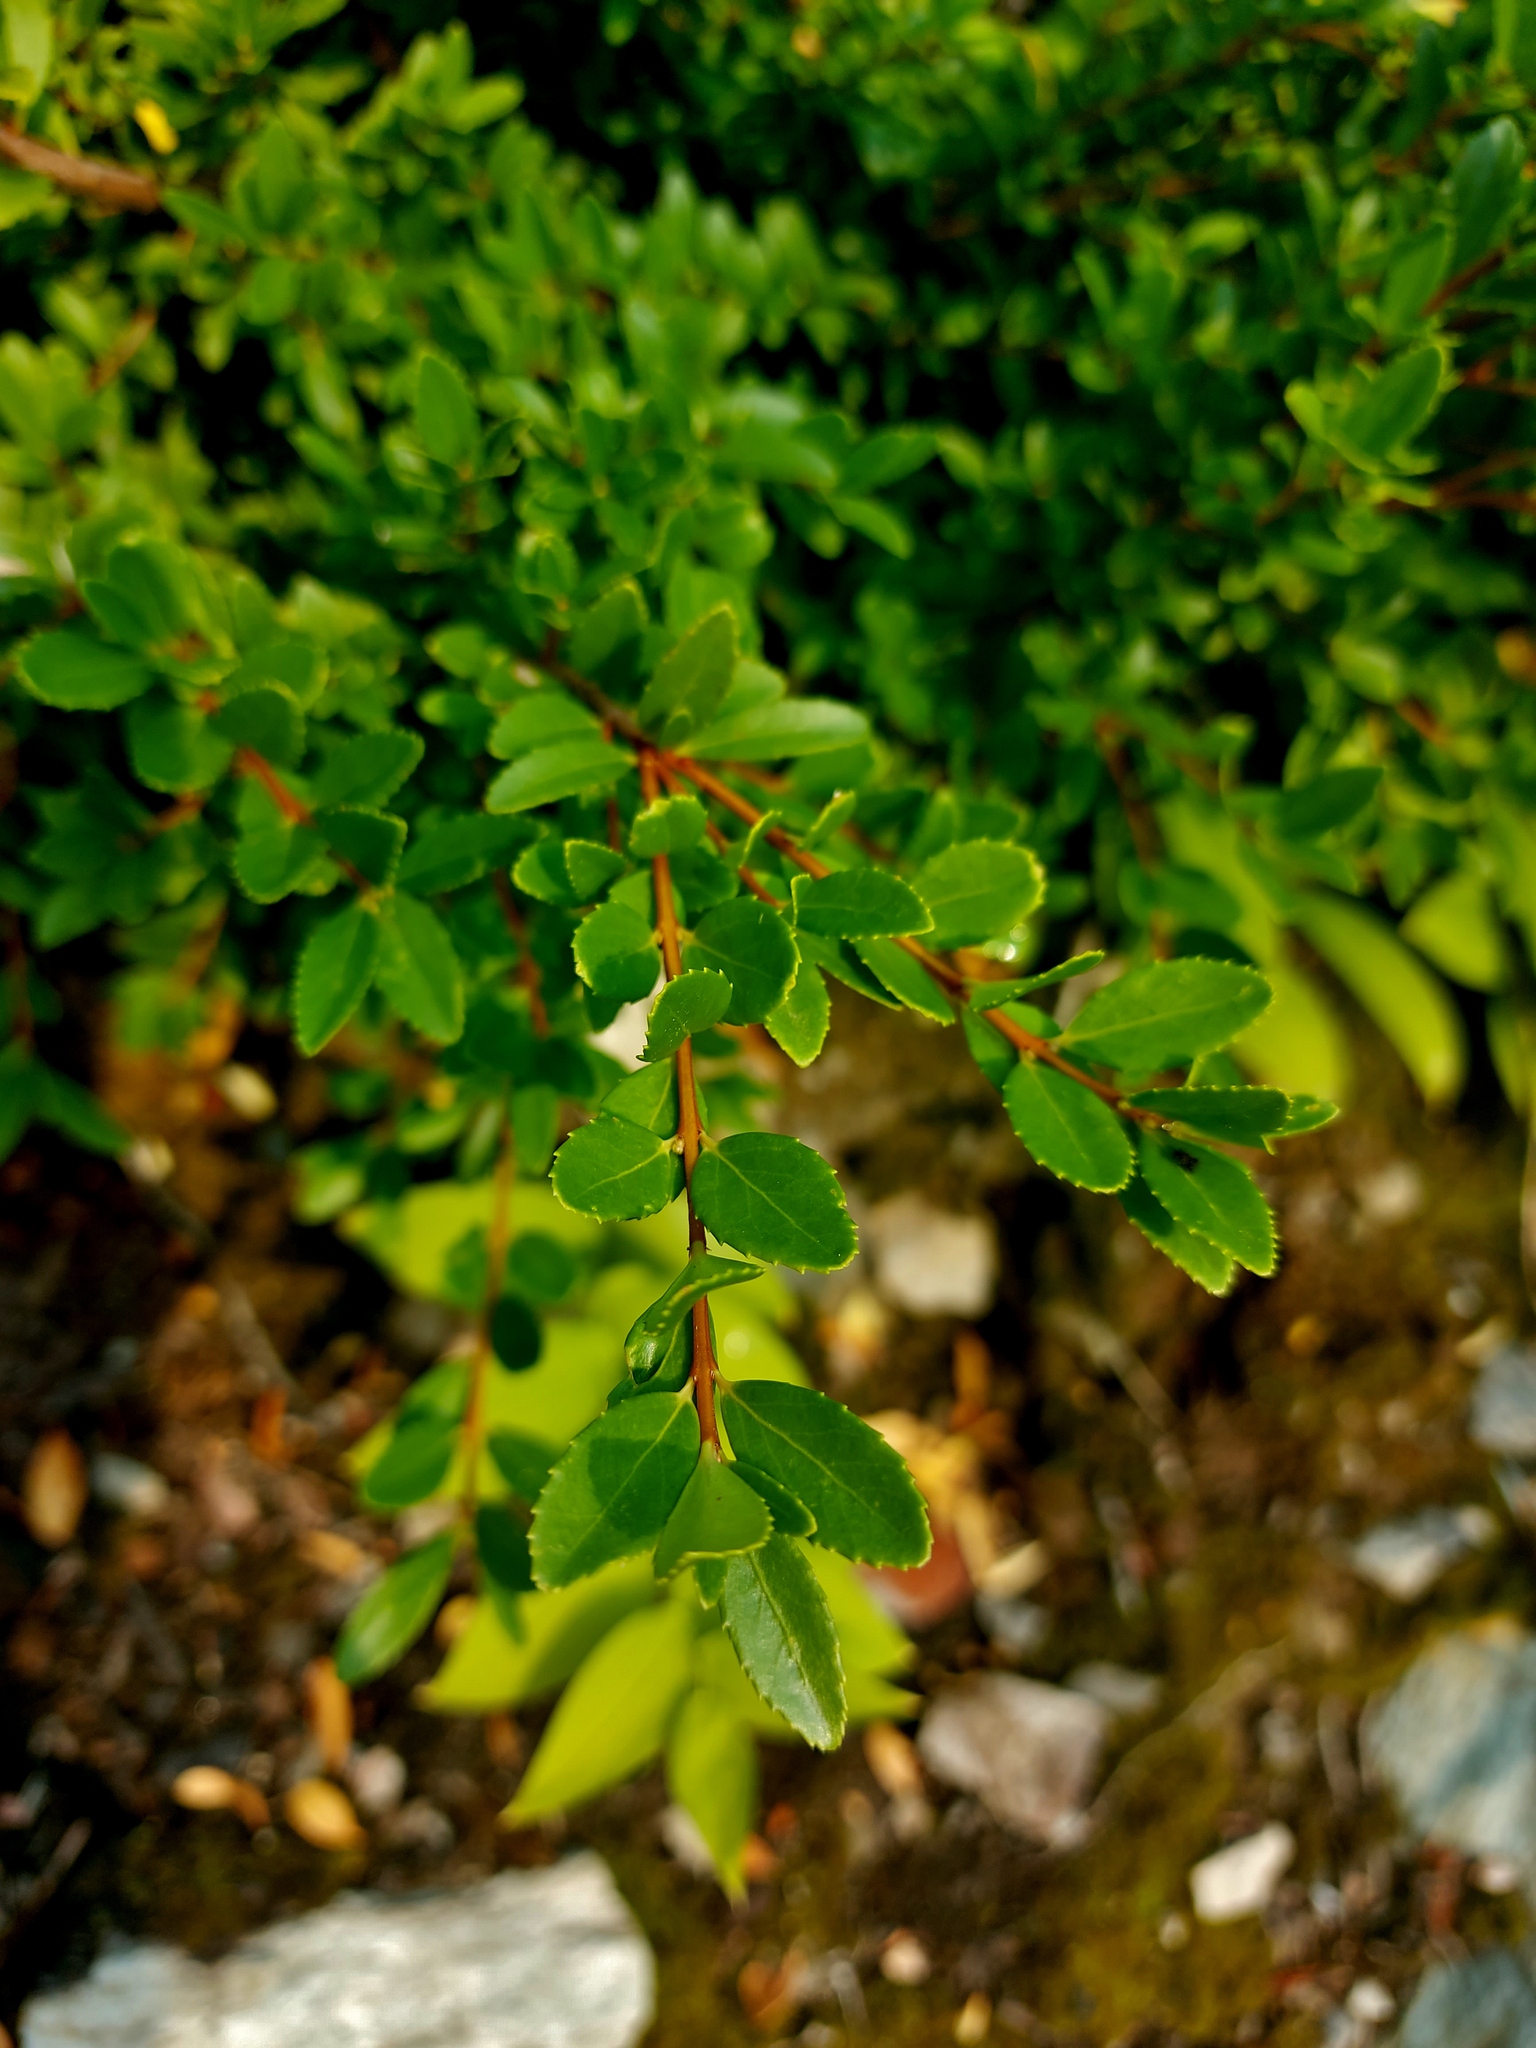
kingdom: Plantae
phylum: Tracheophyta
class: Magnoliopsida
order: Celastrales
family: Celastraceae
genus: Paxistima
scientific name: Paxistima myrsinites
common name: Mountain-lover
